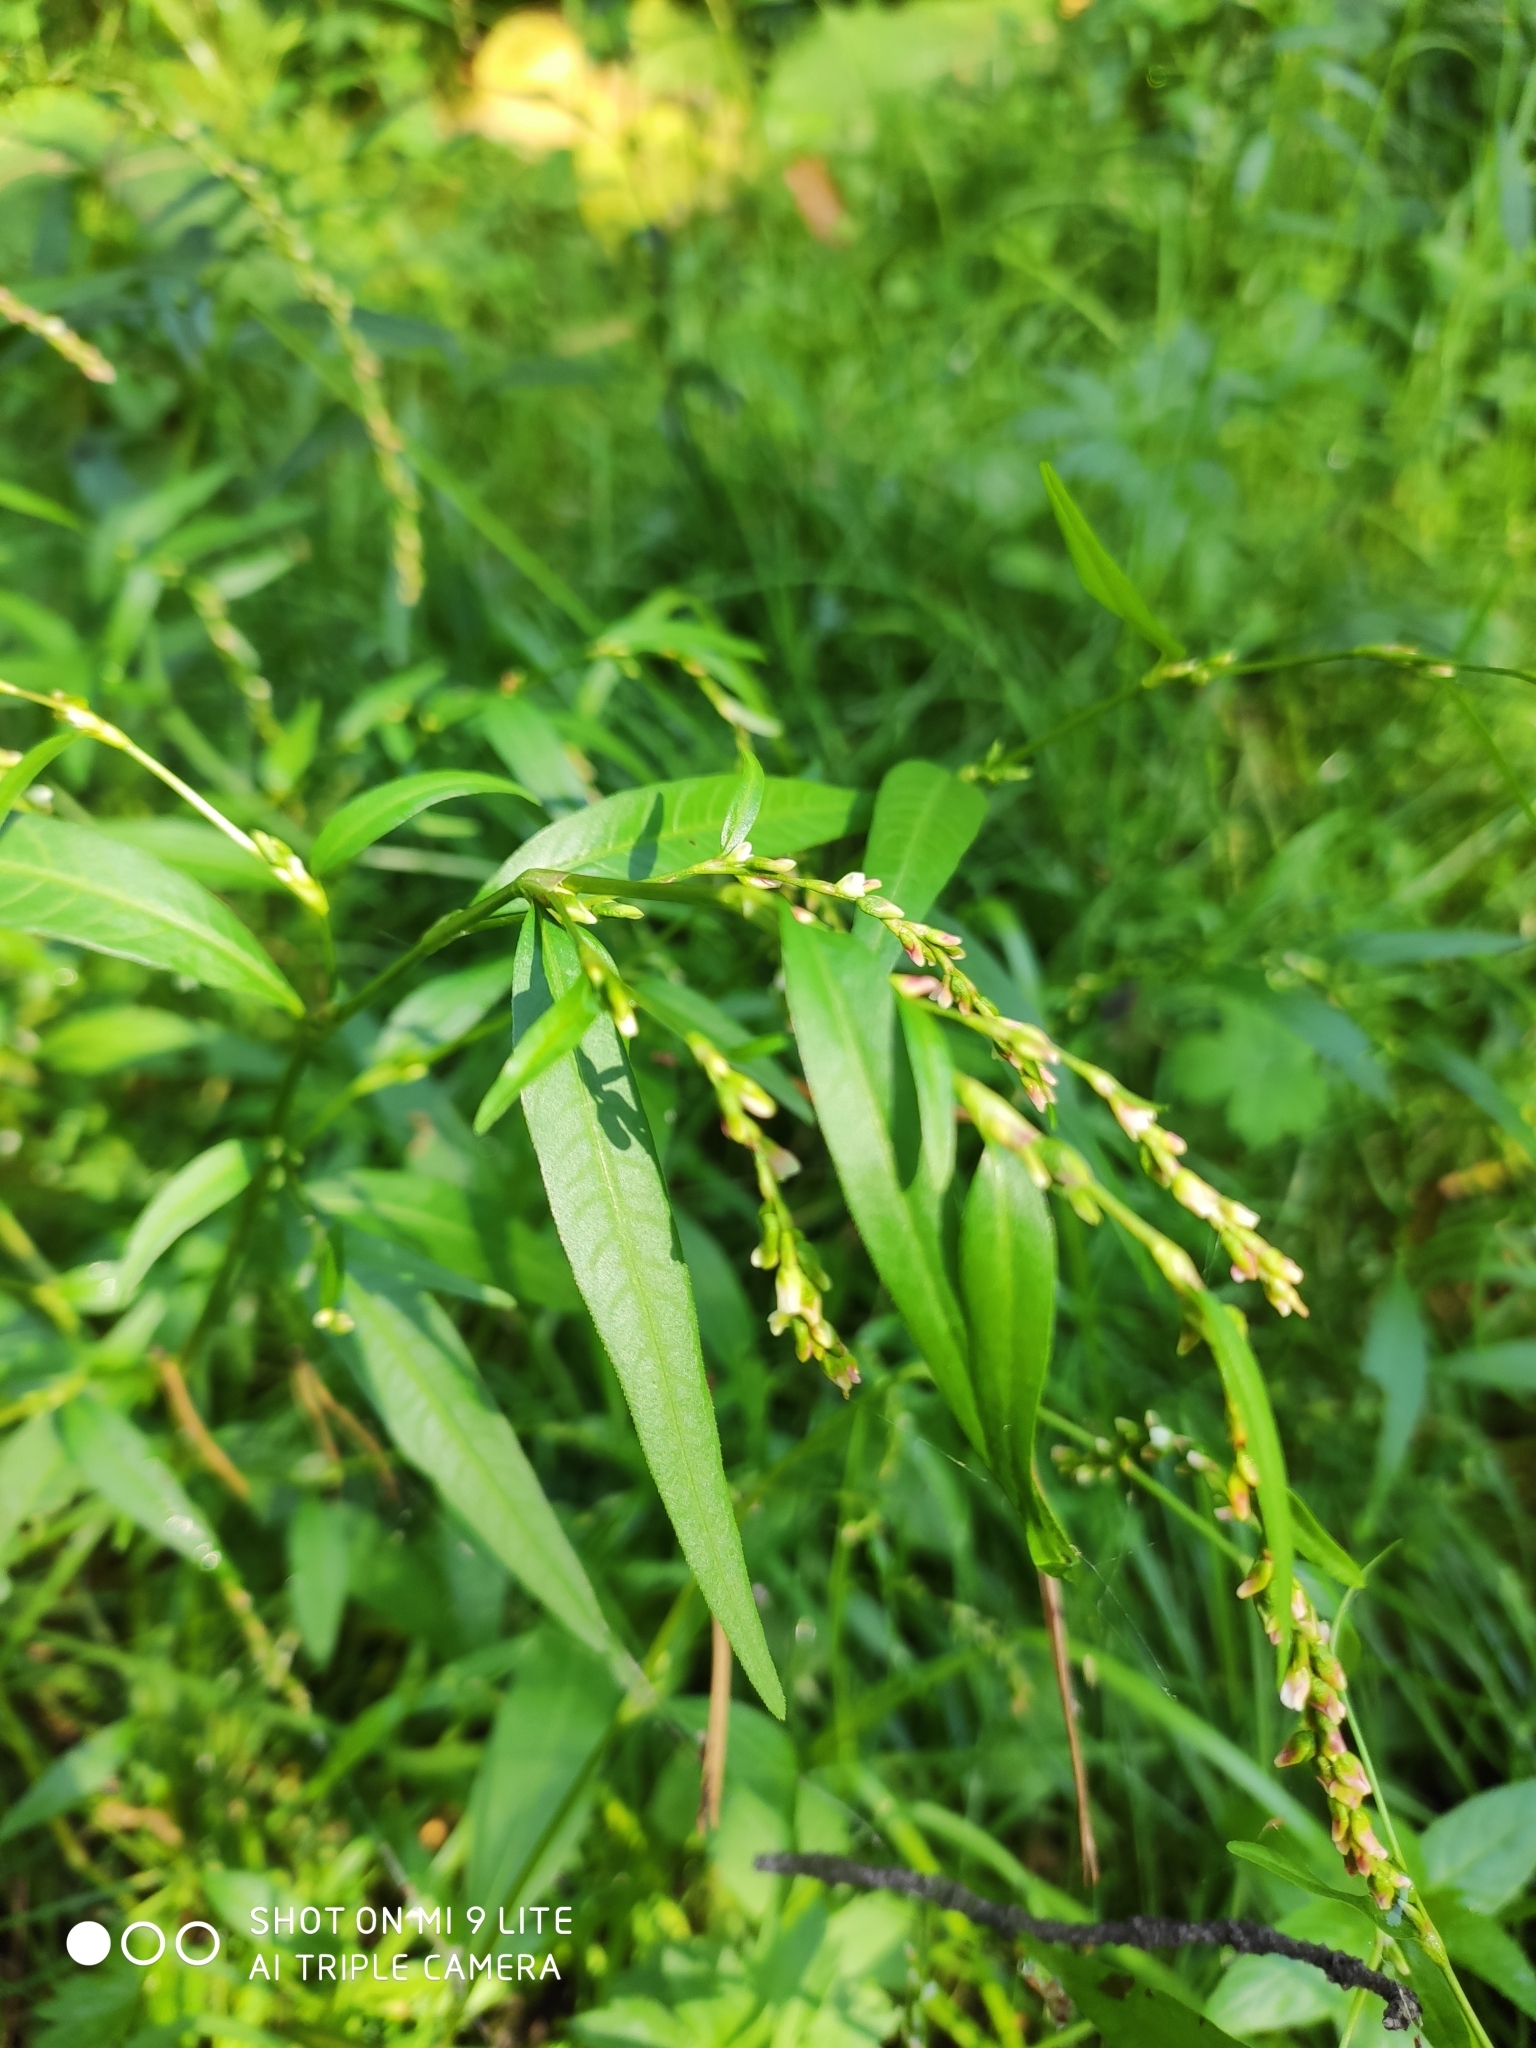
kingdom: Plantae
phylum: Tracheophyta
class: Magnoliopsida
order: Caryophyllales
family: Polygonaceae
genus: Persicaria
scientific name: Persicaria hydropiper
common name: Water-pepper
